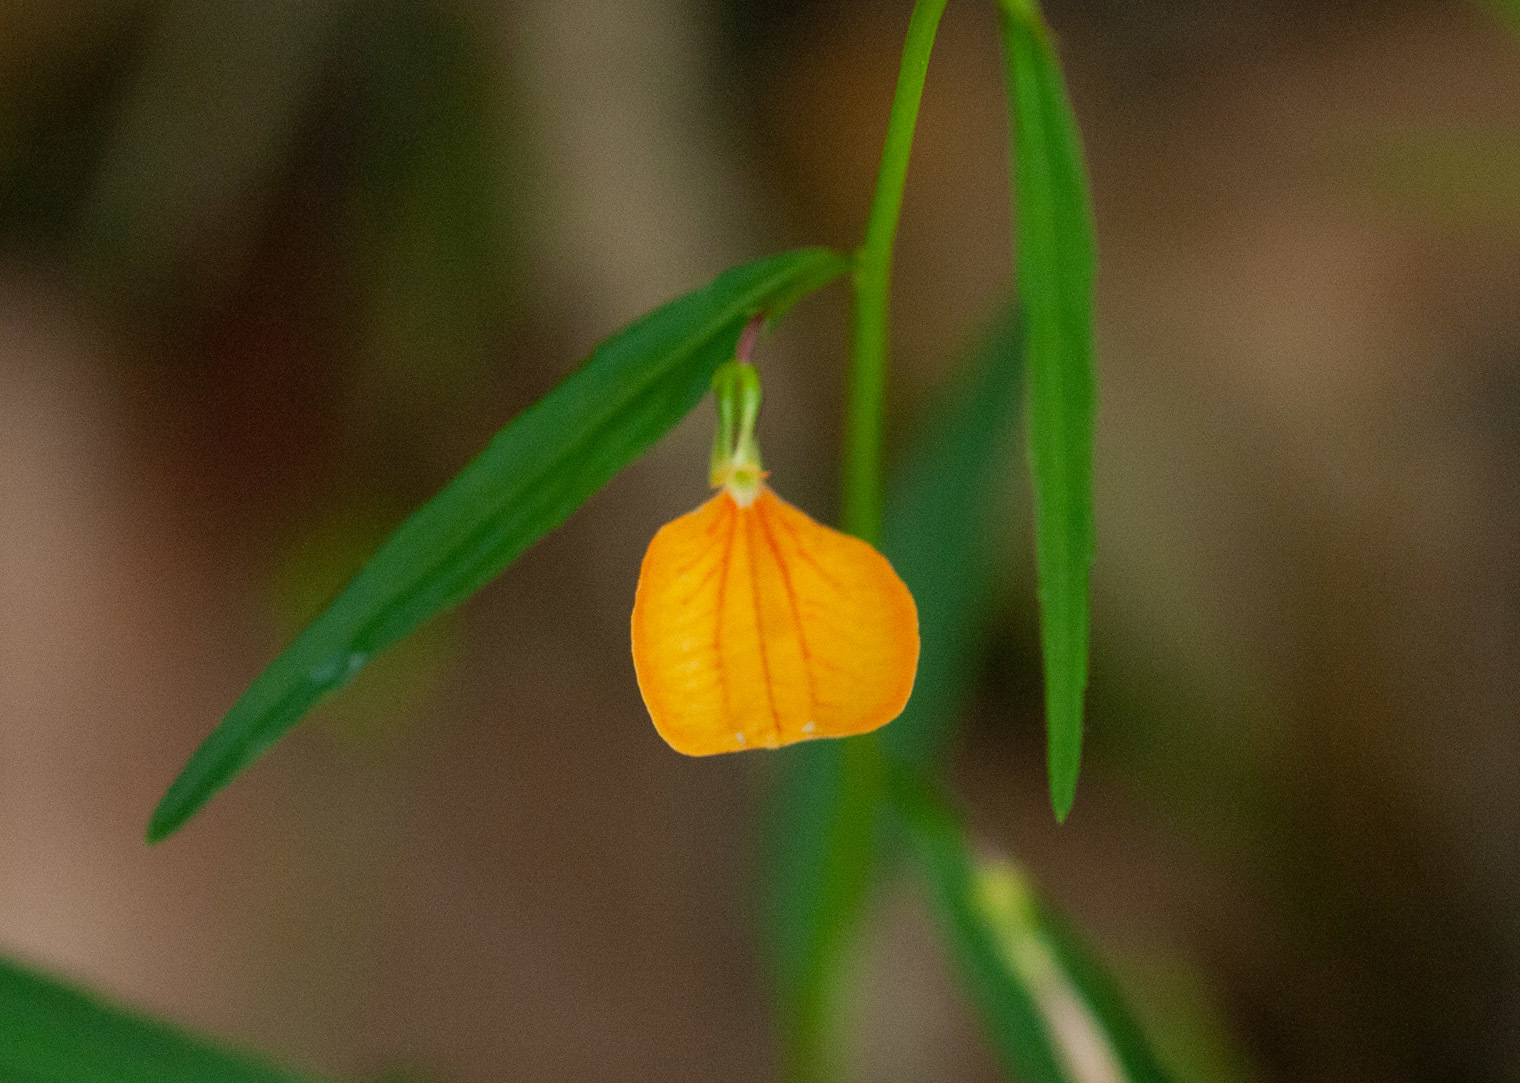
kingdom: Plantae
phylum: Tracheophyta
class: Magnoliopsida
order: Malpighiales
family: Violaceae
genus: Pigea
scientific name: Pigea stellarioides
